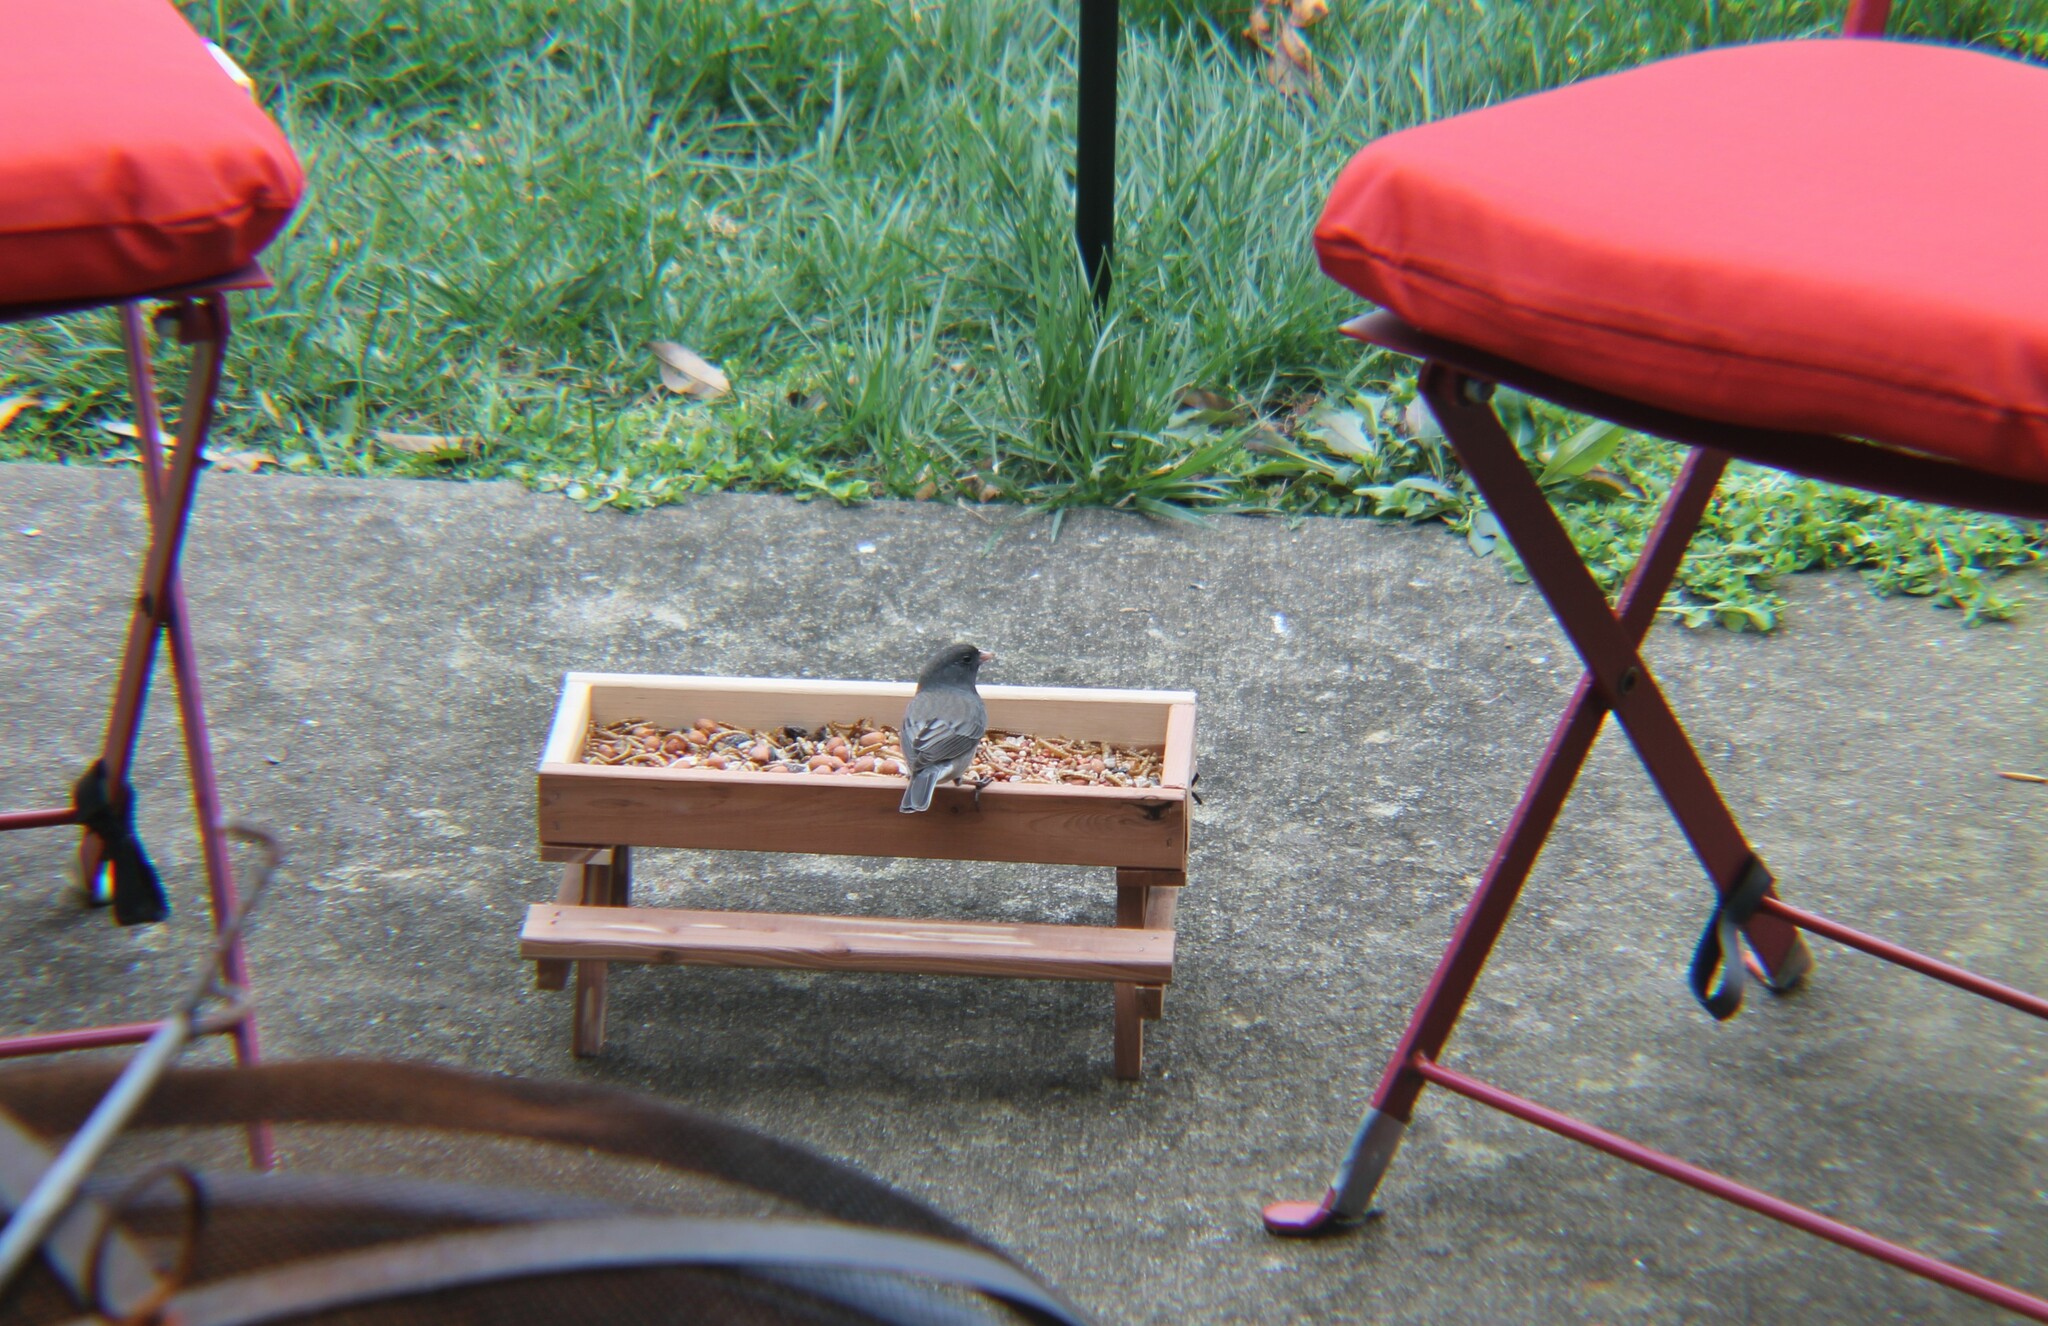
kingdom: Animalia
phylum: Chordata
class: Aves
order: Passeriformes
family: Passerellidae
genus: Junco
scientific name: Junco hyemalis
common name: Dark-eyed junco
